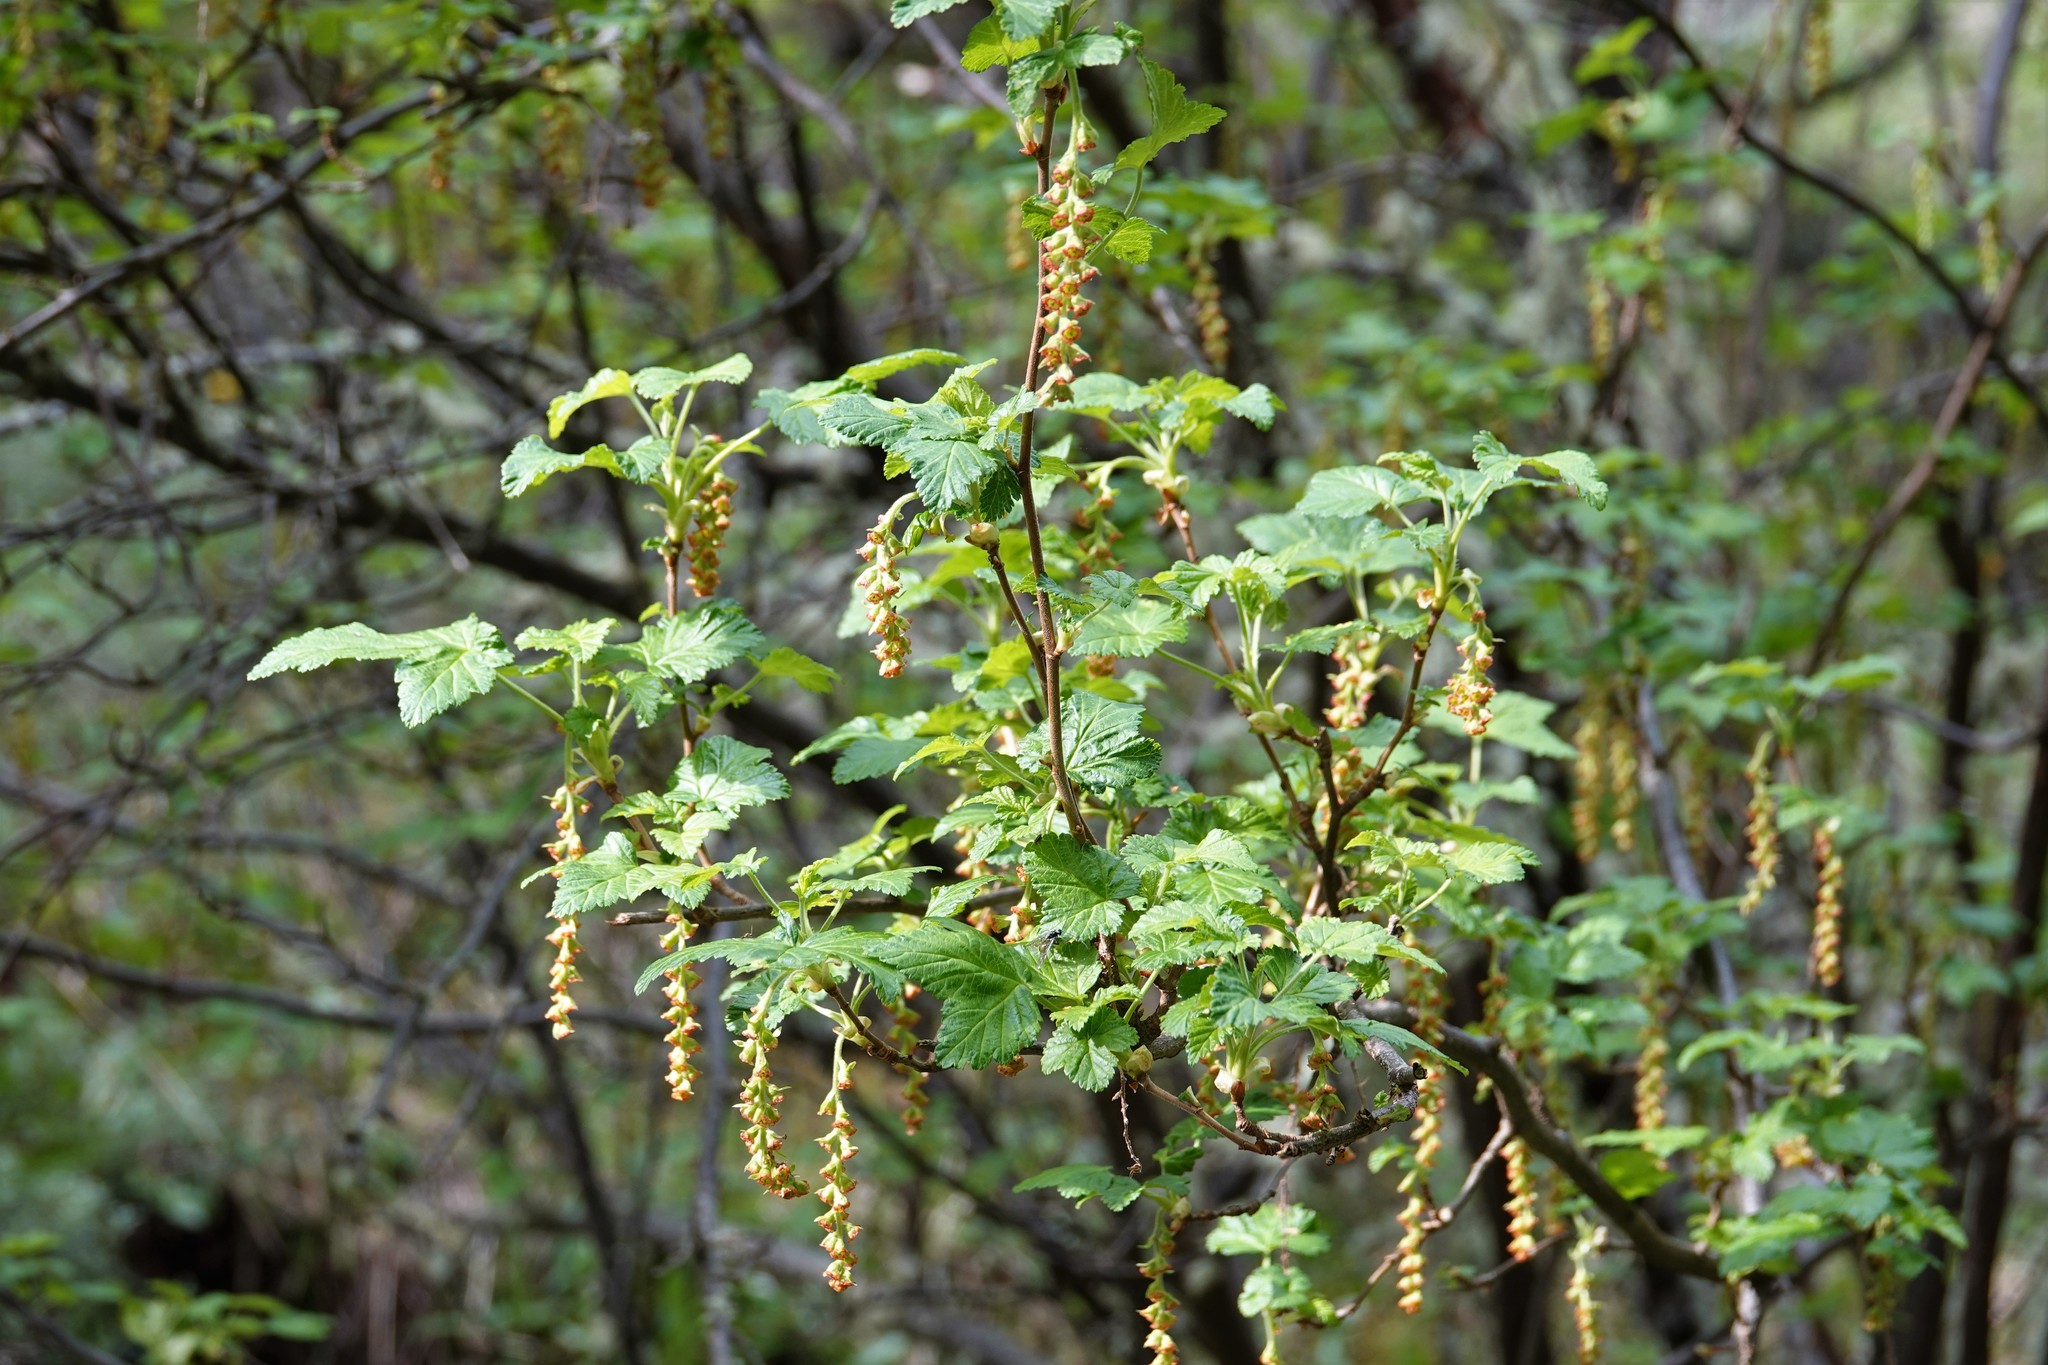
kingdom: Plantae
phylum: Tracheophyta
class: Magnoliopsida
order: Saxifragales
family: Grossulariaceae
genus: Ribes
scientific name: Ribes magellanicum
